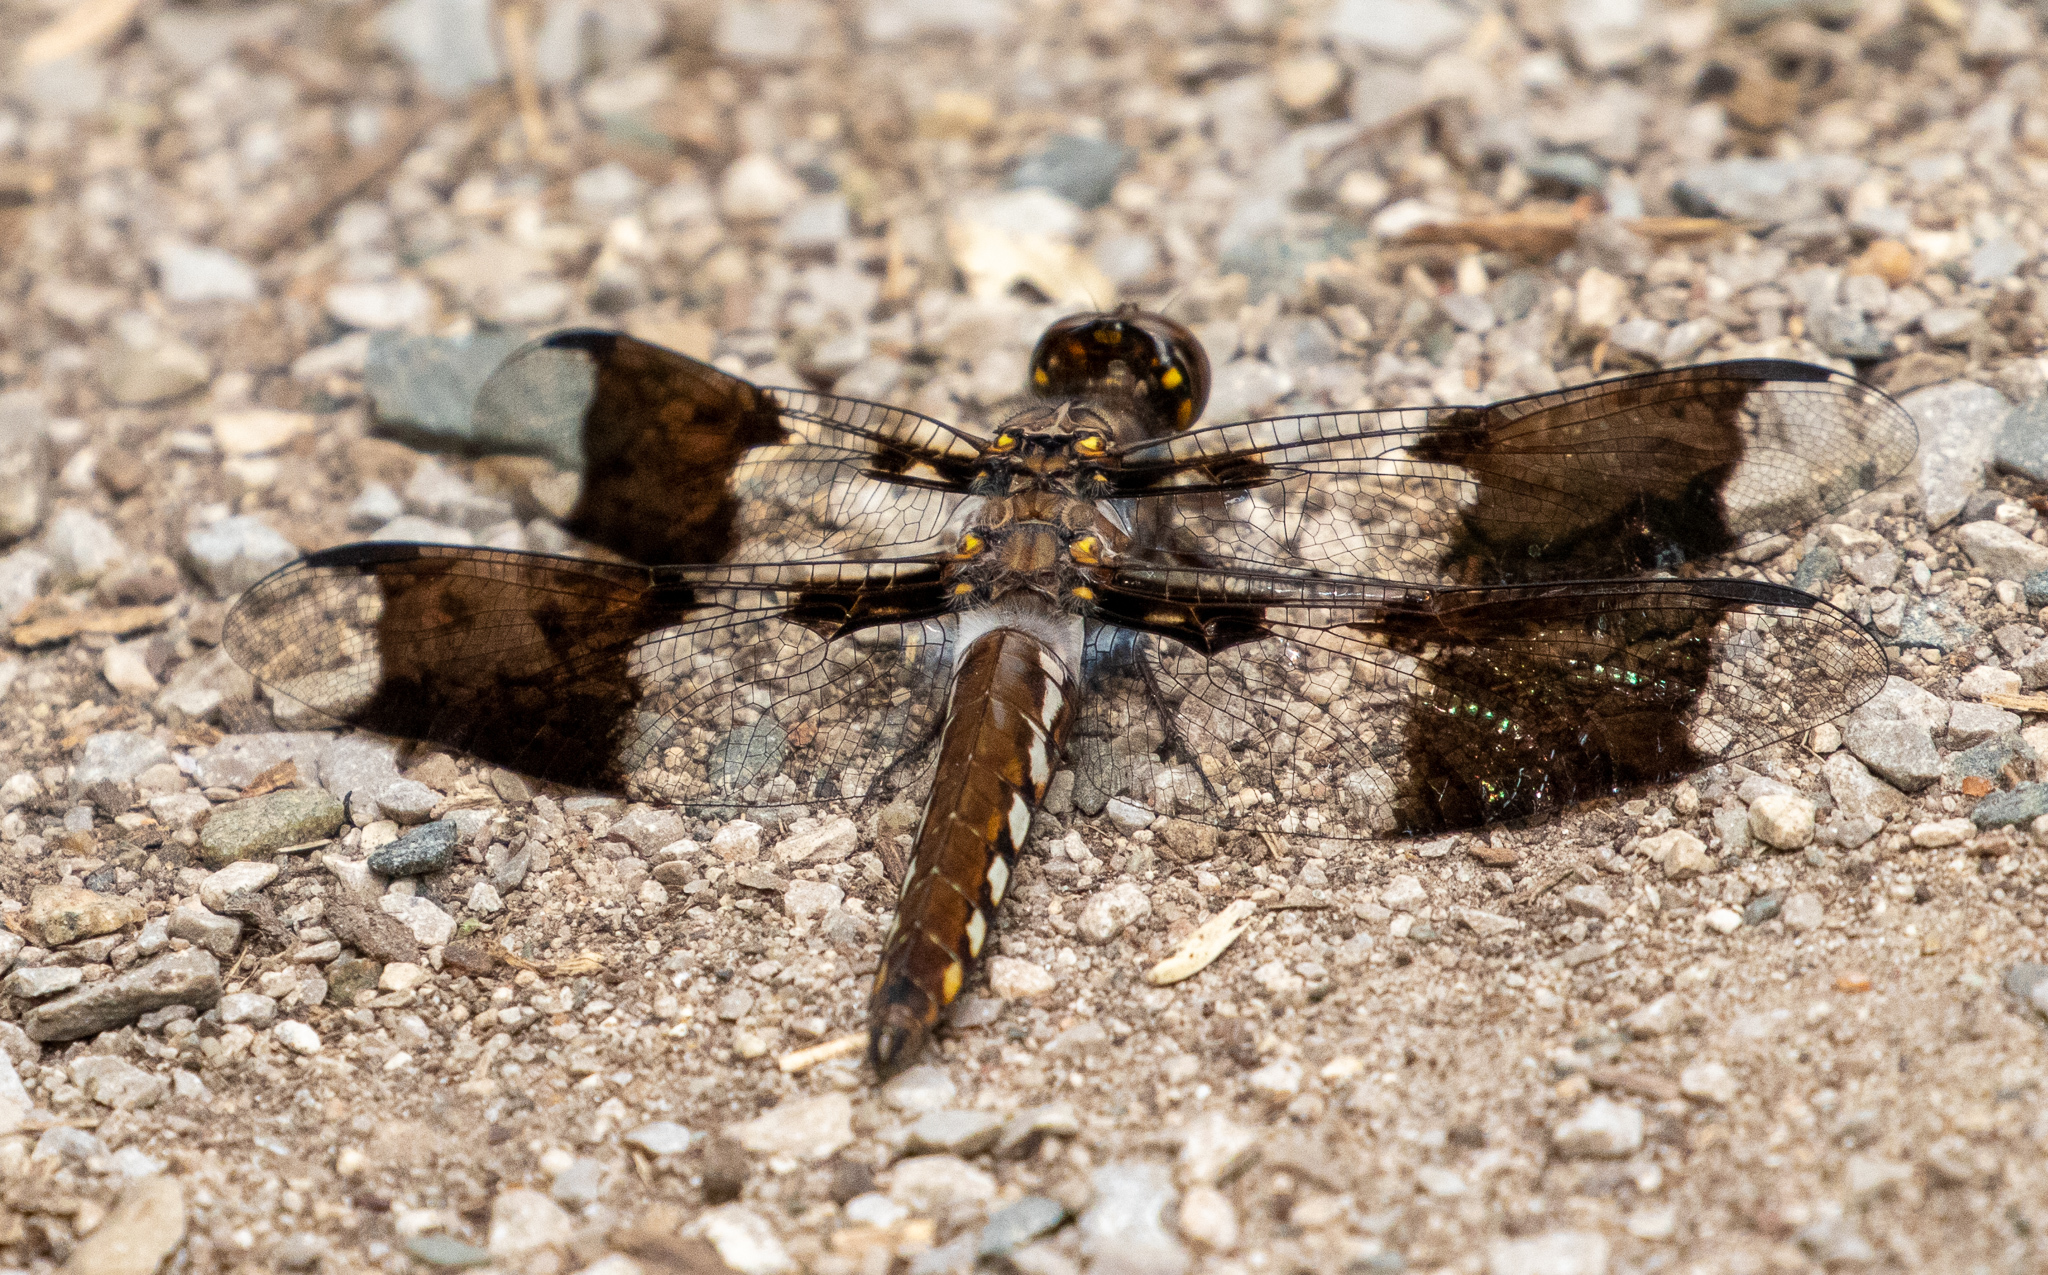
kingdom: Animalia
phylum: Arthropoda
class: Insecta
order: Odonata
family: Libellulidae
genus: Plathemis
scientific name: Plathemis lydia
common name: Common whitetail
